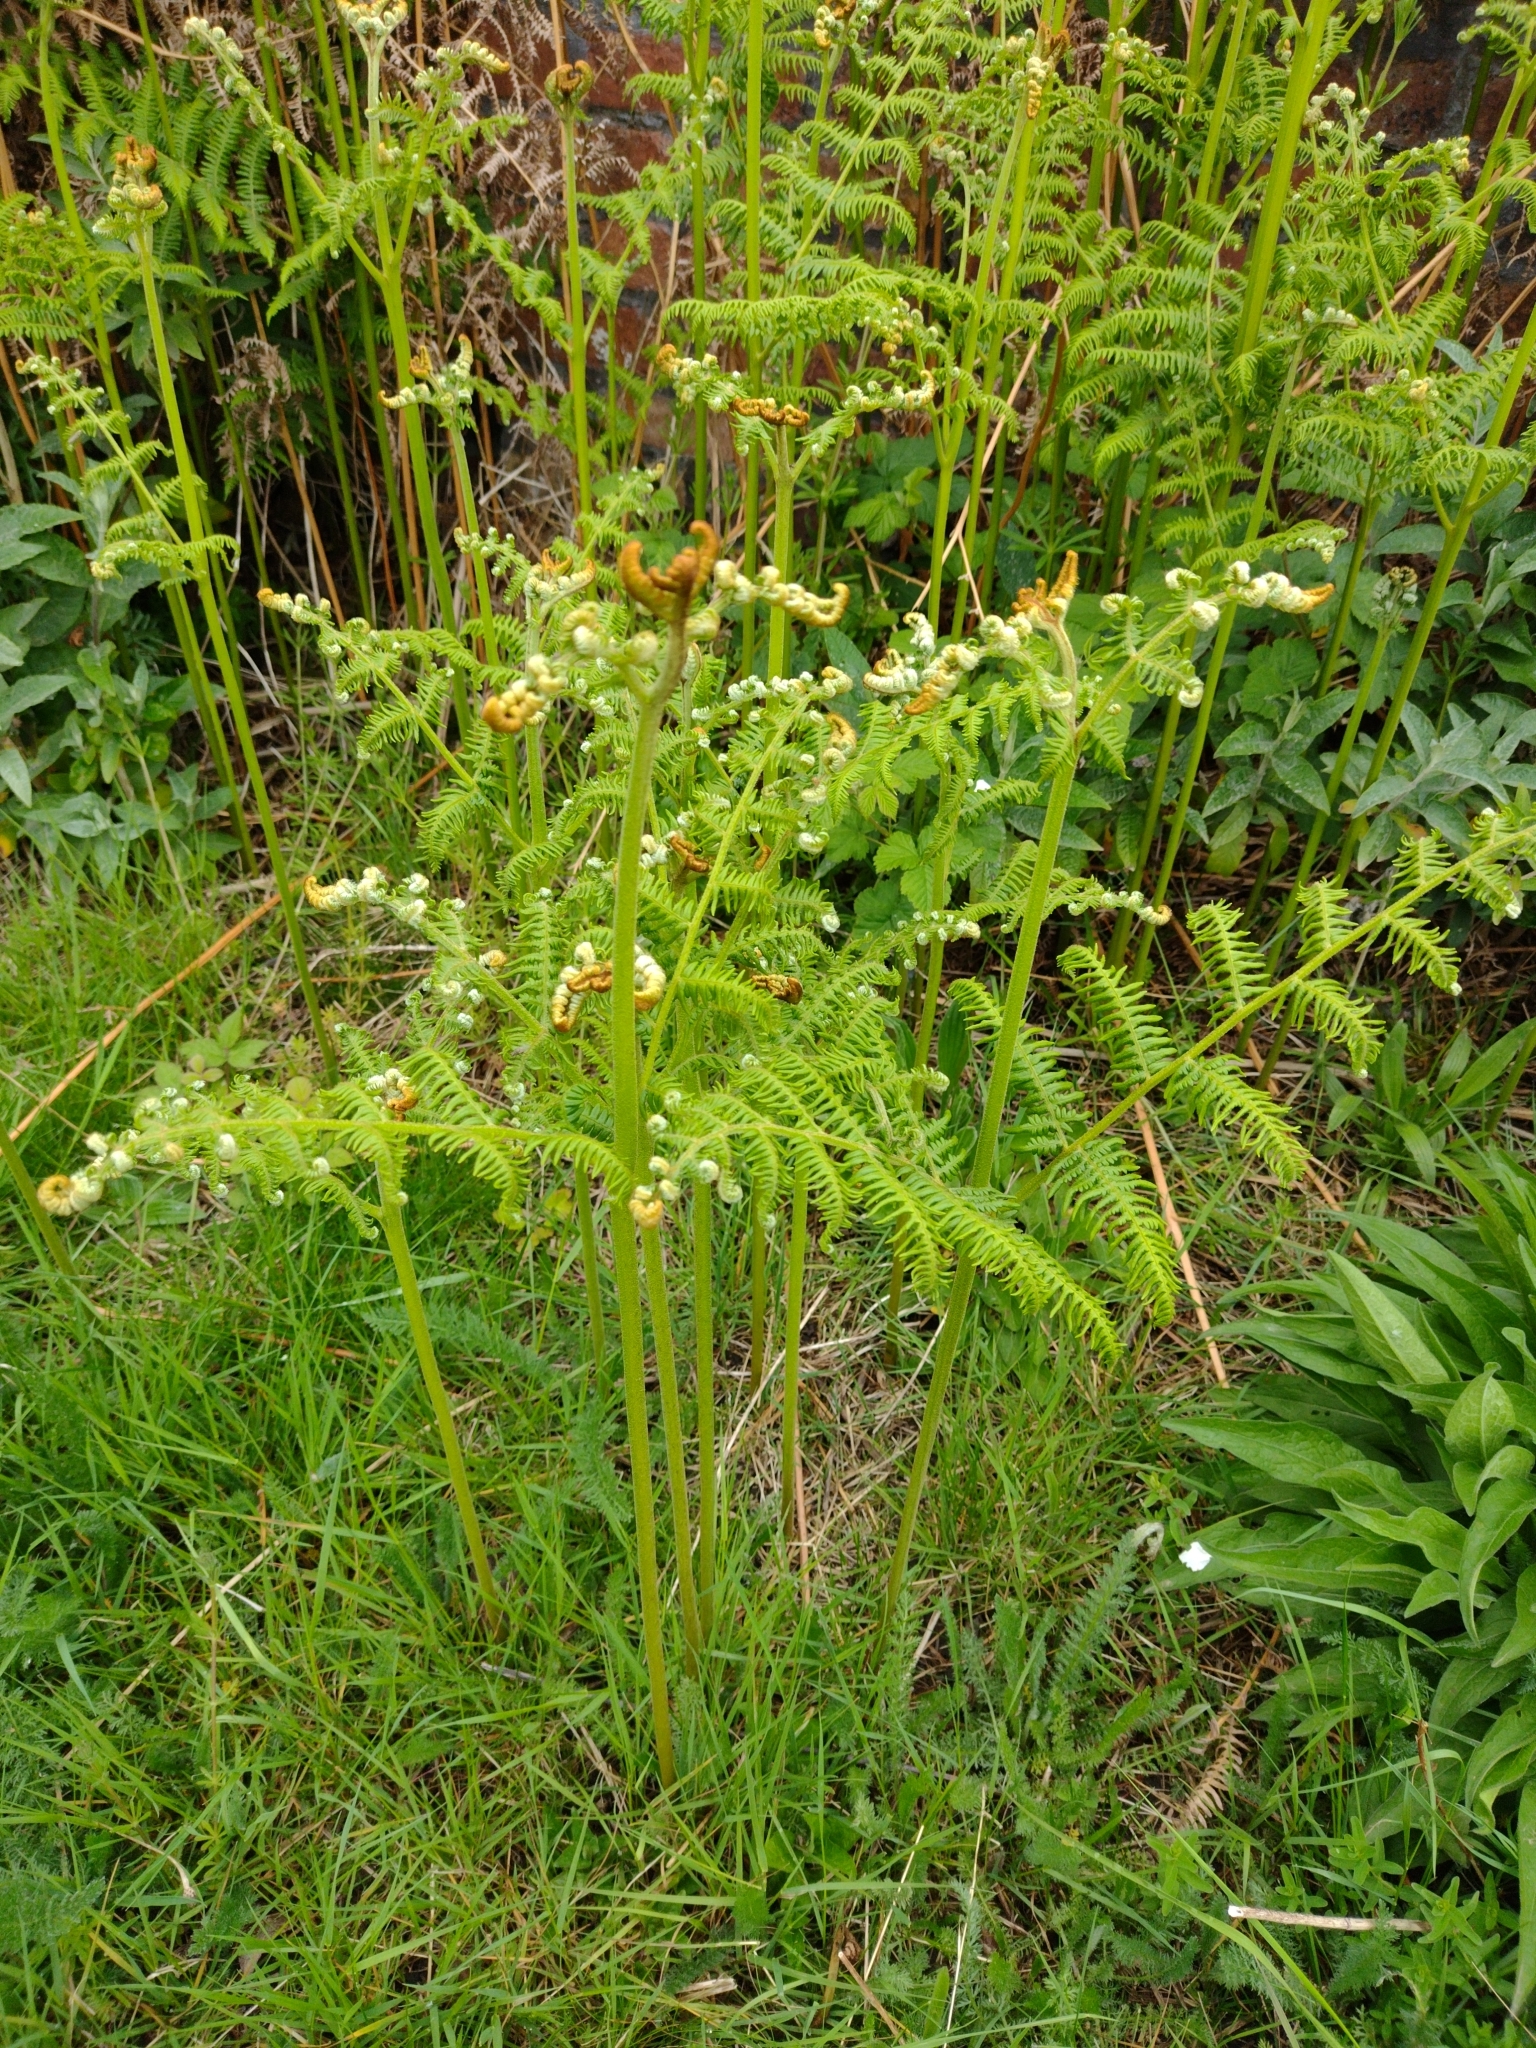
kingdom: Plantae
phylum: Tracheophyta
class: Polypodiopsida
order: Polypodiales
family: Dennstaedtiaceae
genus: Pteridium
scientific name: Pteridium aquilinum
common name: Bracken
